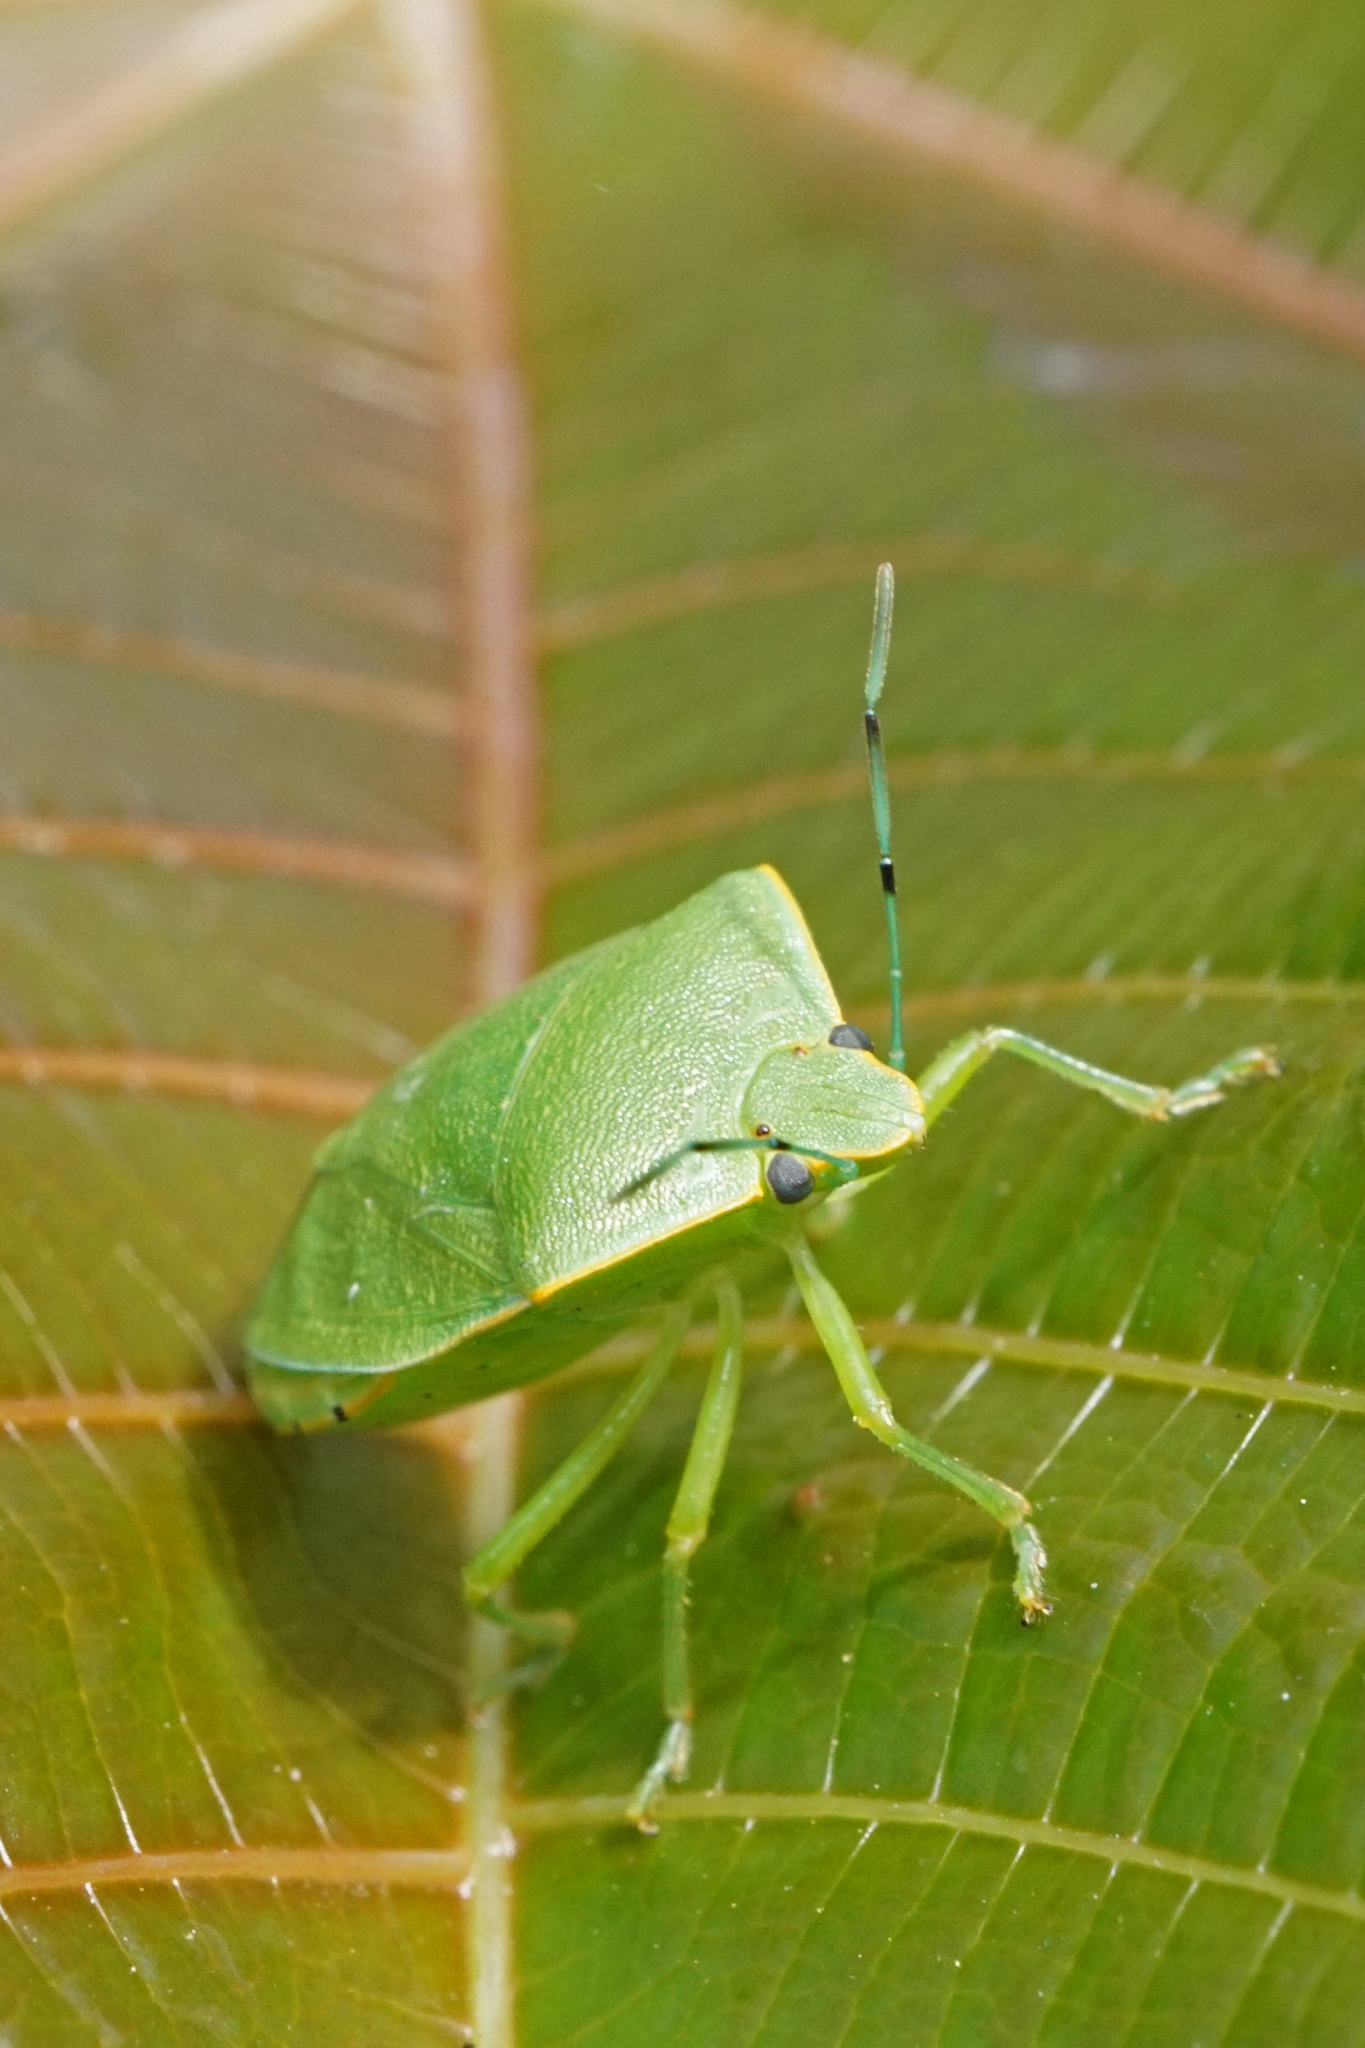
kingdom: Animalia
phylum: Arthropoda
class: Insecta
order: Hemiptera
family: Pentatomidae
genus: Acrosternum
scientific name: Acrosternum marginatum
